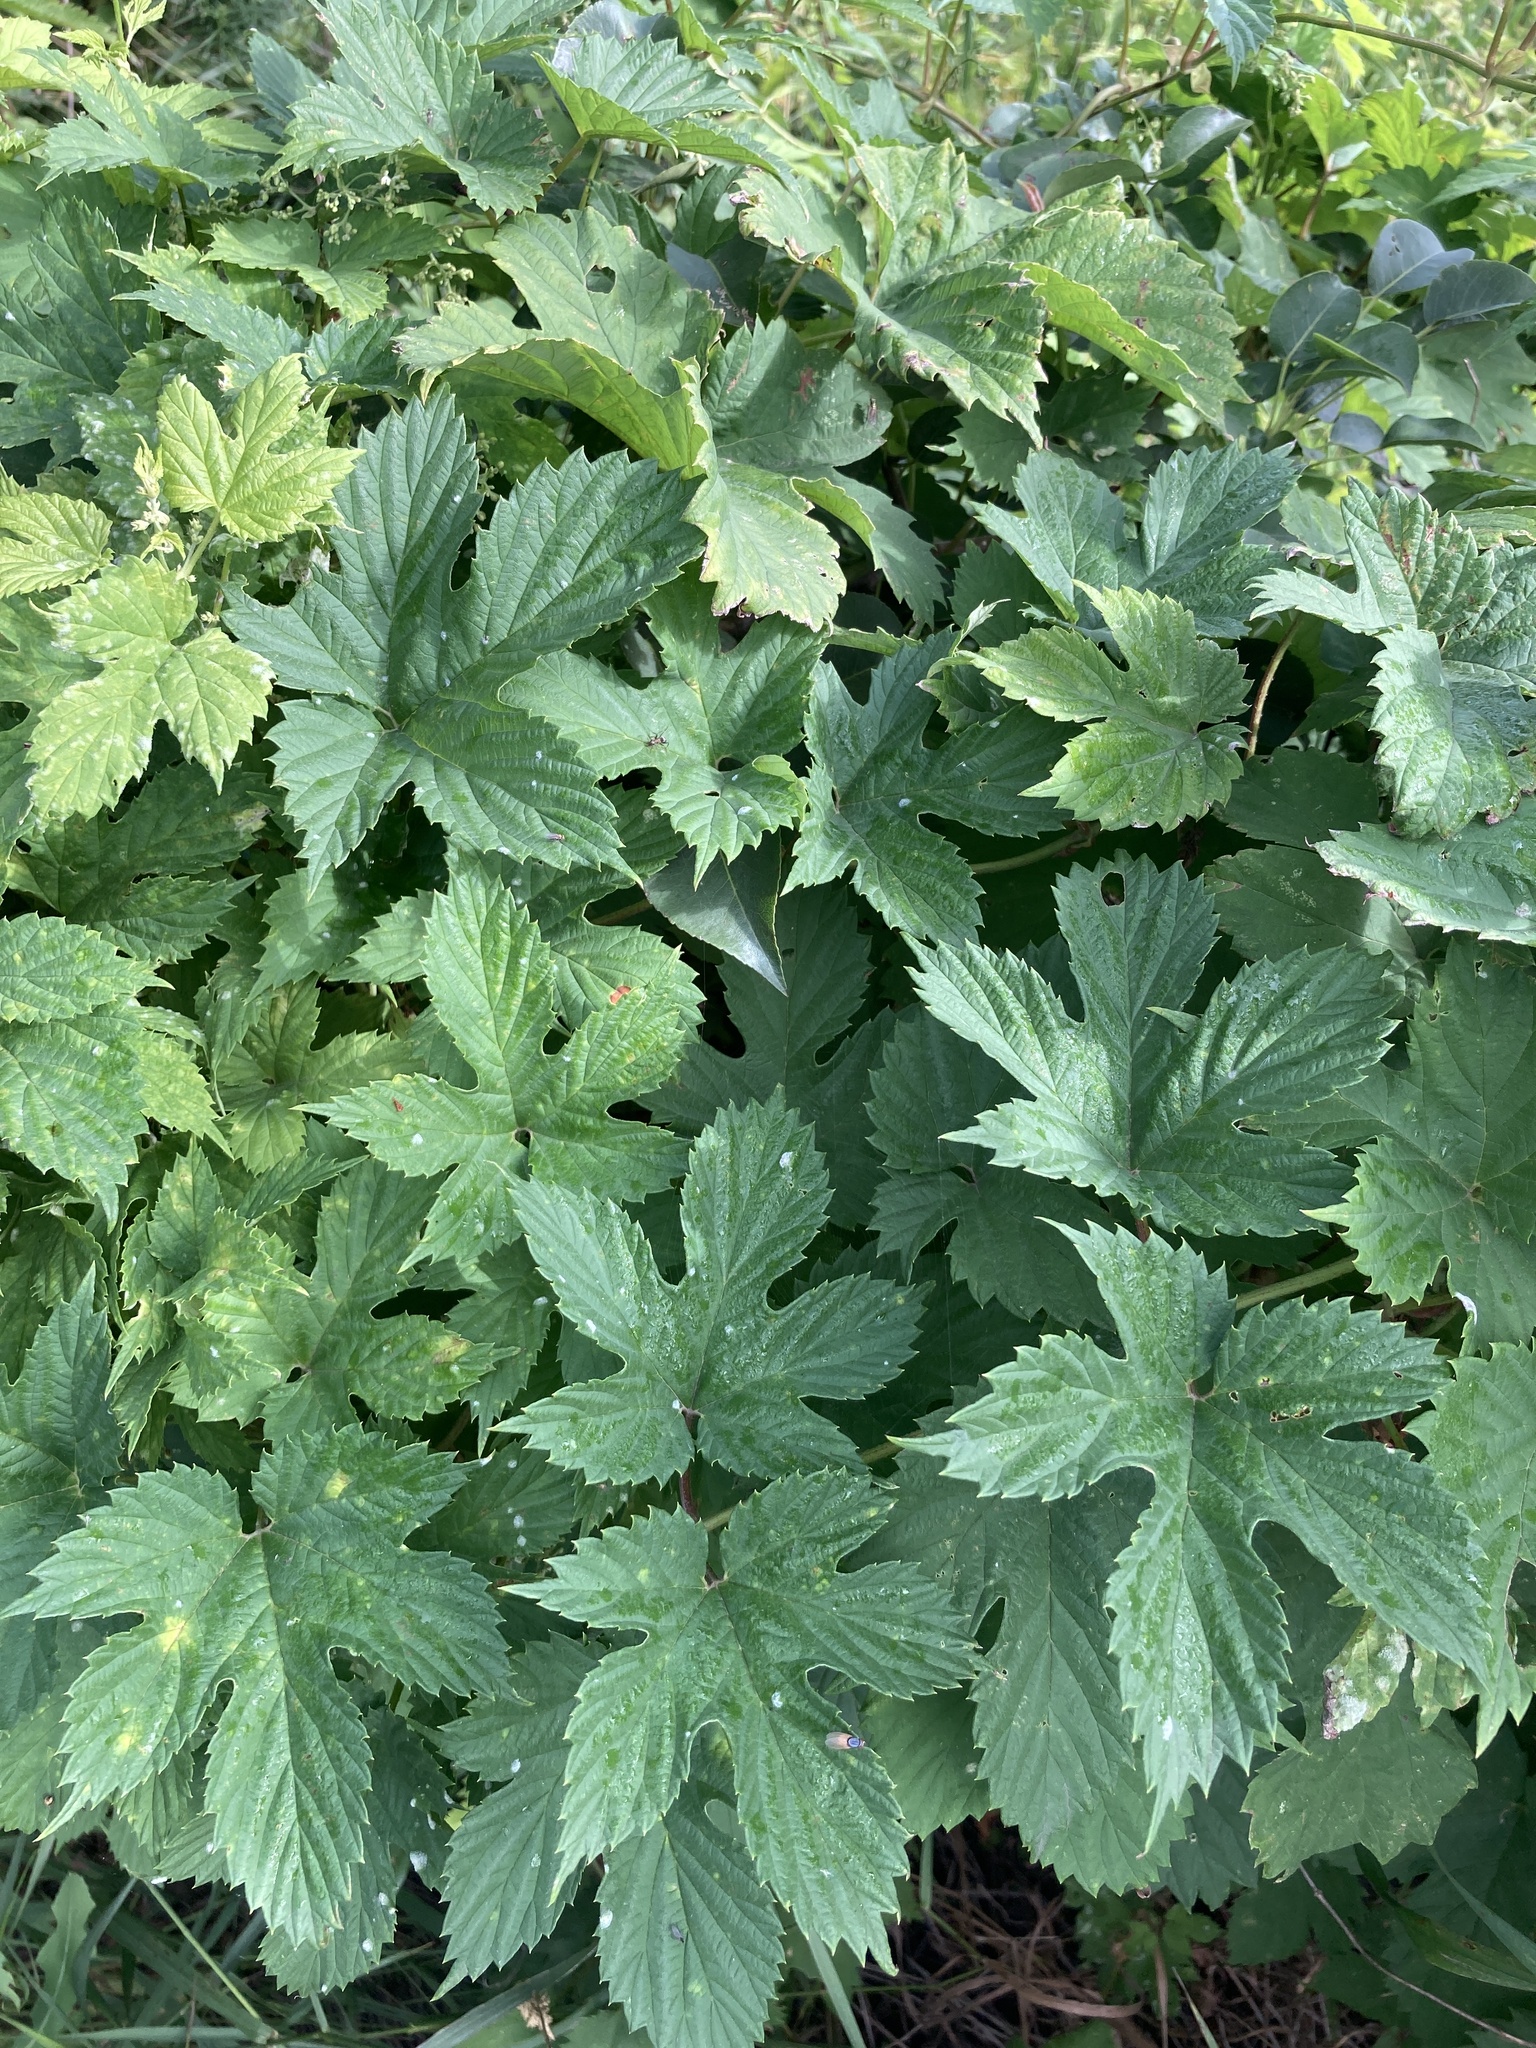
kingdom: Plantae
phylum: Tracheophyta
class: Magnoliopsida
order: Rosales
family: Cannabaceae
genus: Humulus
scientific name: Humulus lupulus
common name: Hop
